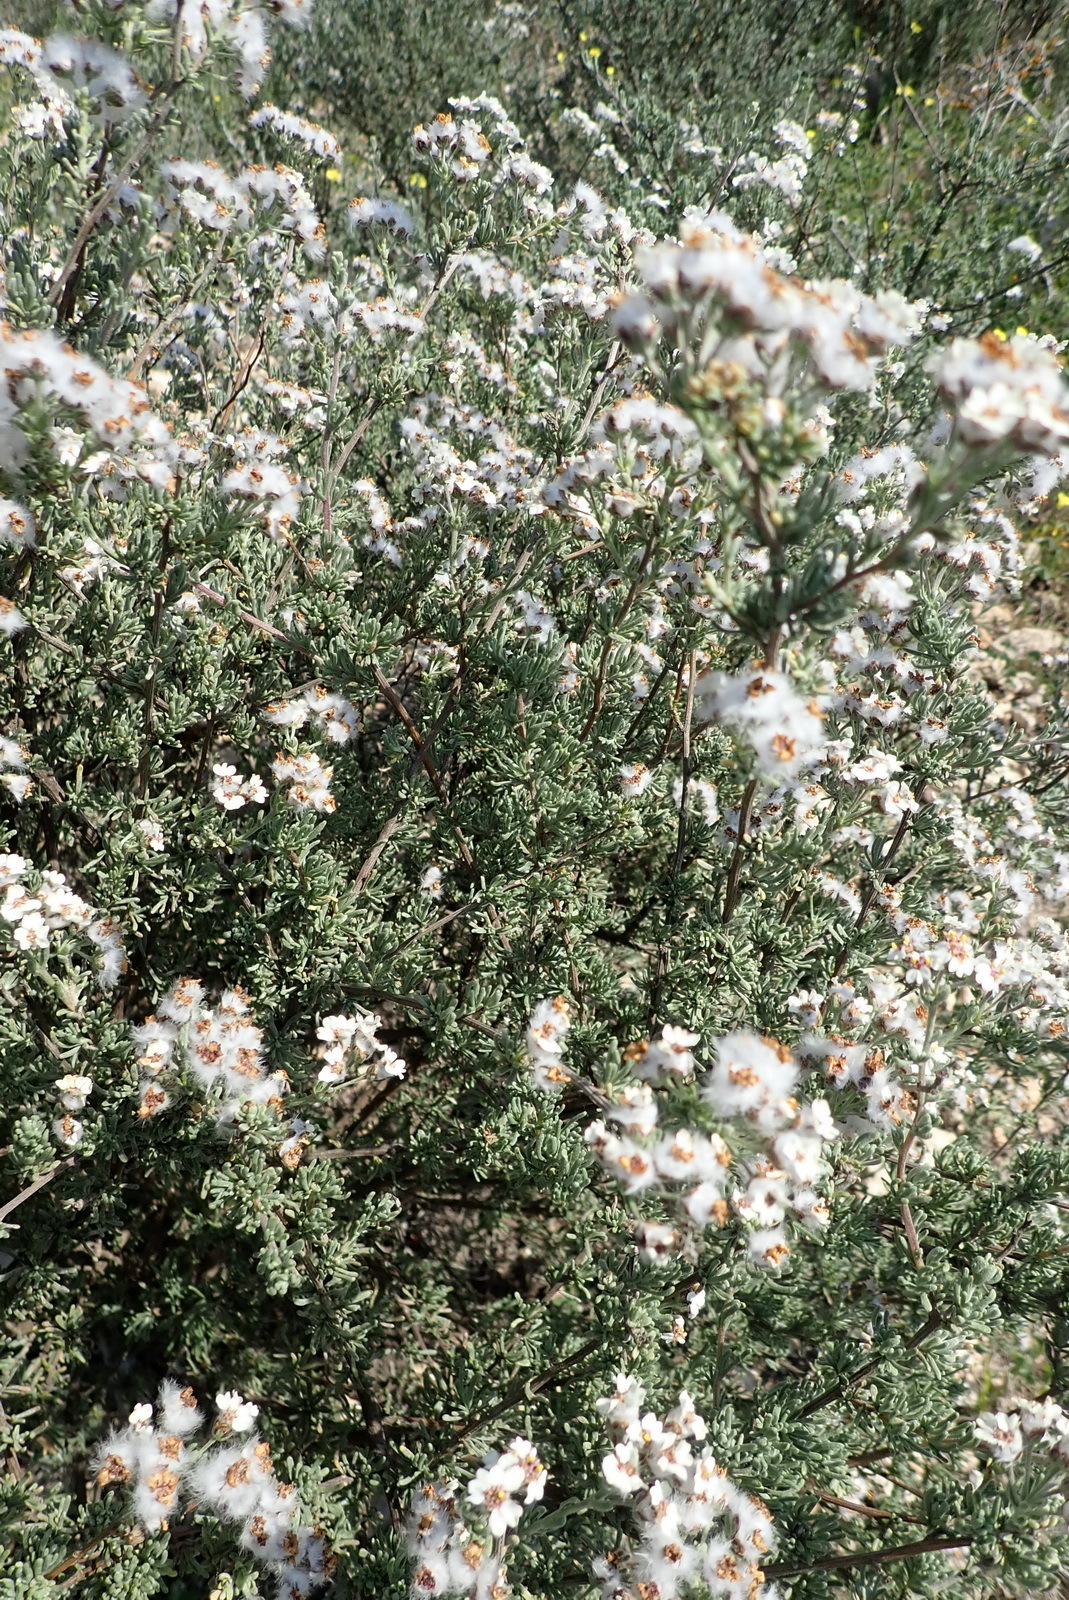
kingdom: Plantae
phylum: Tracheophyta
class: Magnoliopsida
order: Asterales
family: Asteraceae
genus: Eriocephalus
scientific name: Eriocephalus africanus
